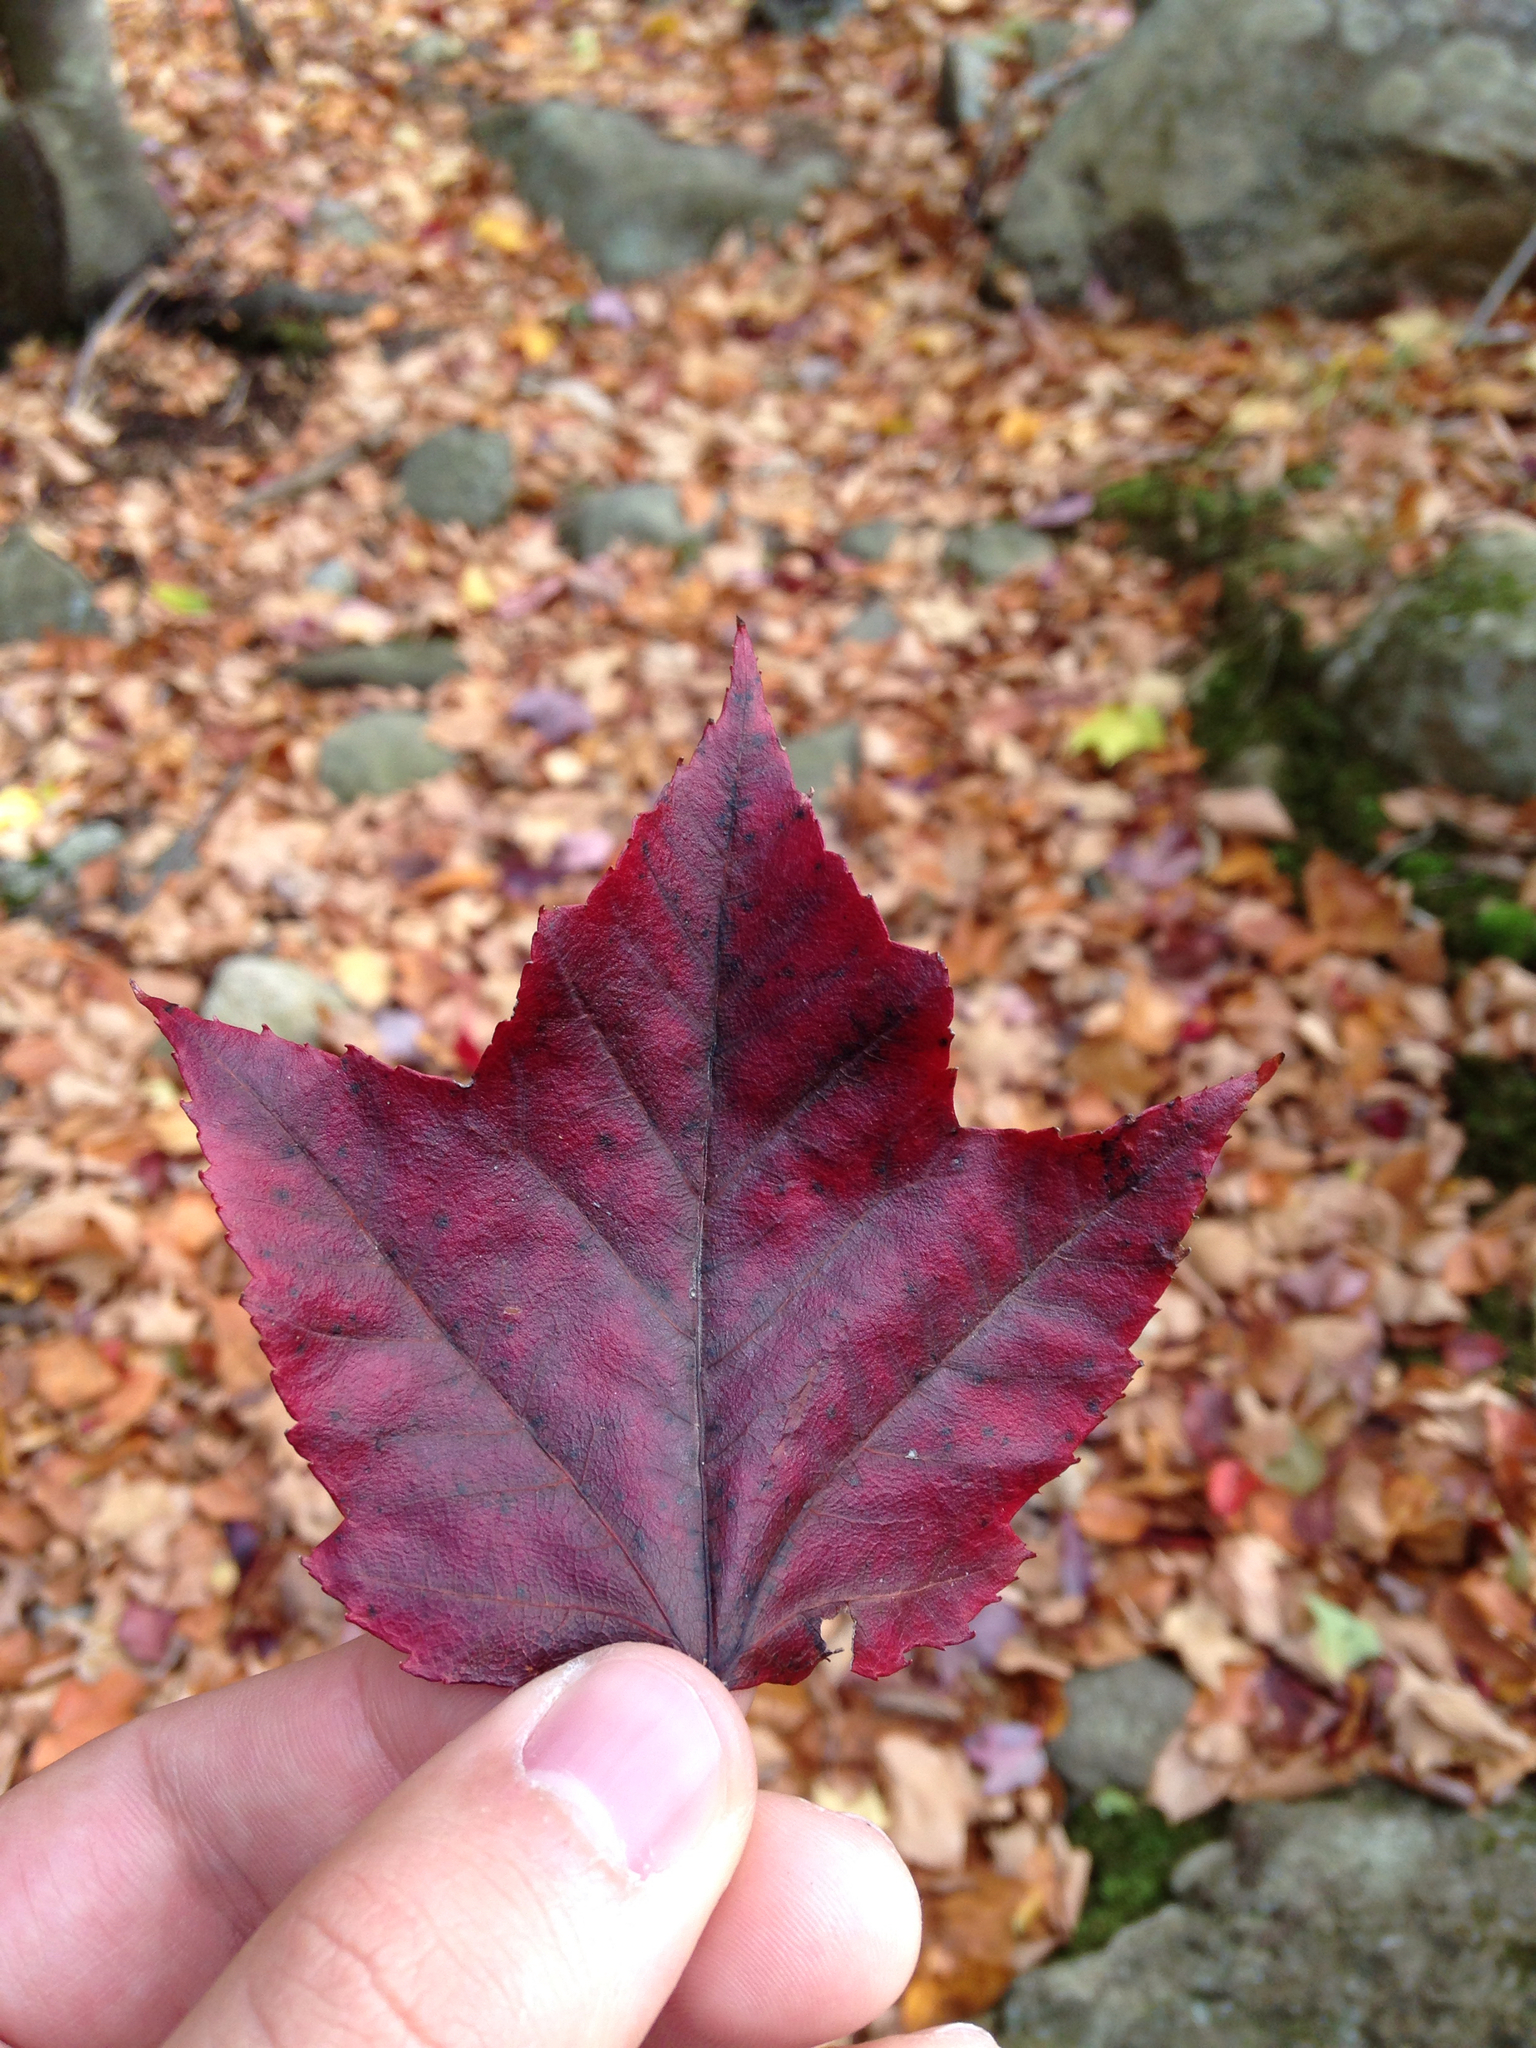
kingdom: Plantae
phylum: Tracheophyta
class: Magnoliopsida
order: Sapindales
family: Sapindaceae
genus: Acer
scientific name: Acer rubrum
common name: Red maple
